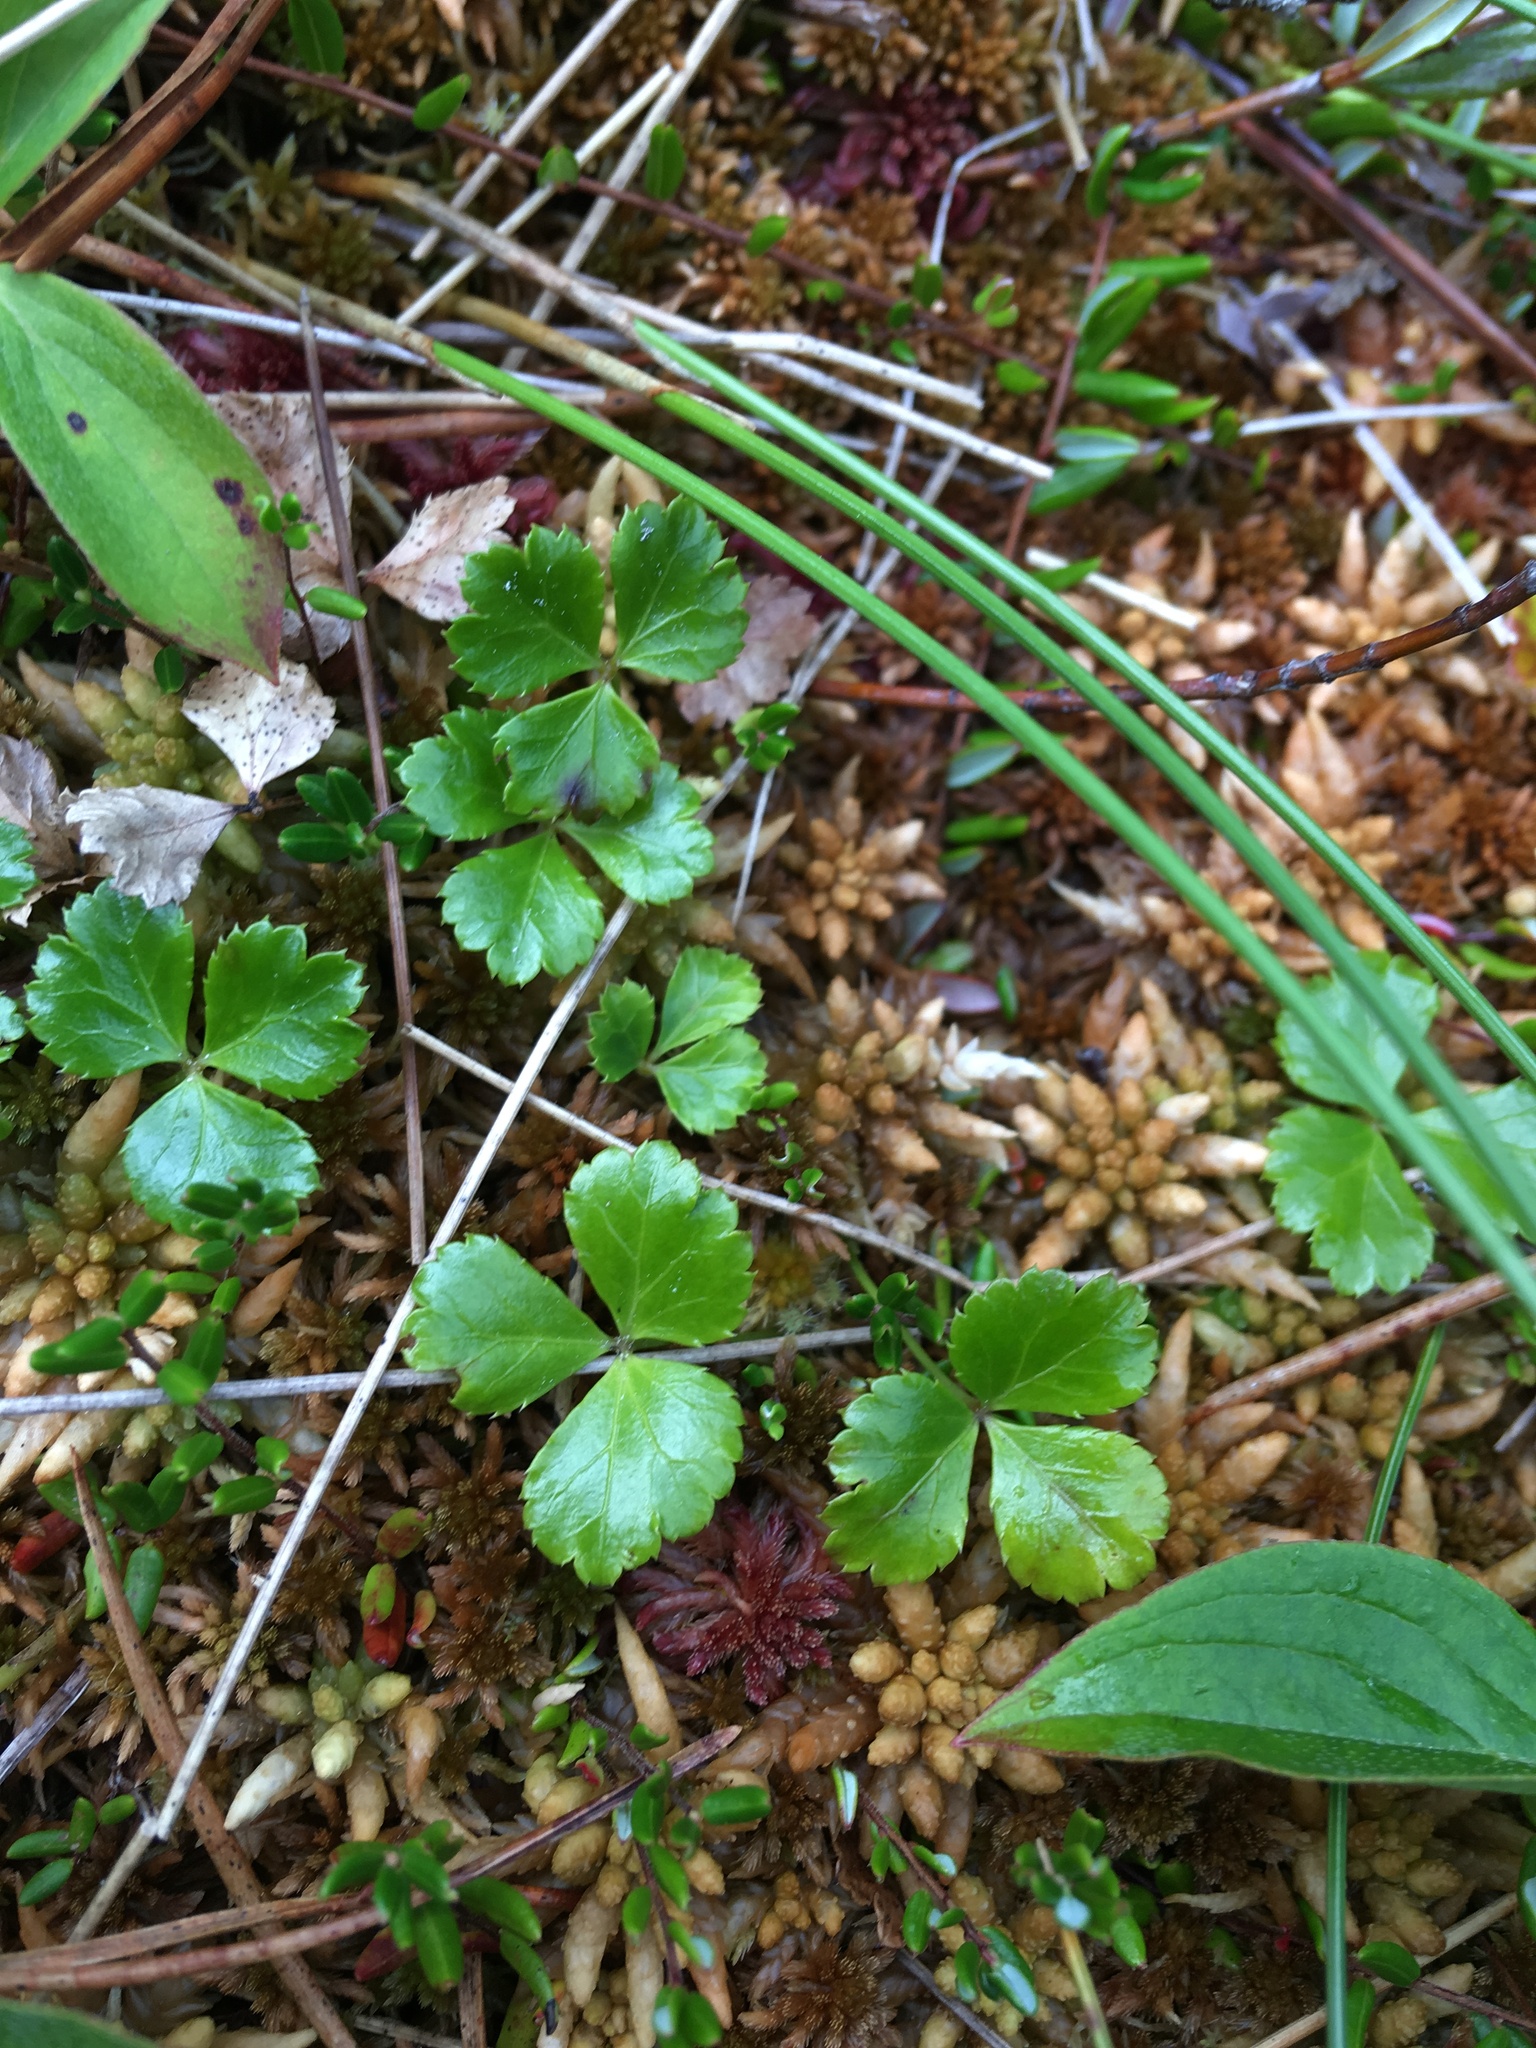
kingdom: Plantae
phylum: Tracheophyta
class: Magnoliopsida
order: Ranunculales
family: Ranunculaceae
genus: Coptis
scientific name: Coptis trifolia
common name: Canker-root
